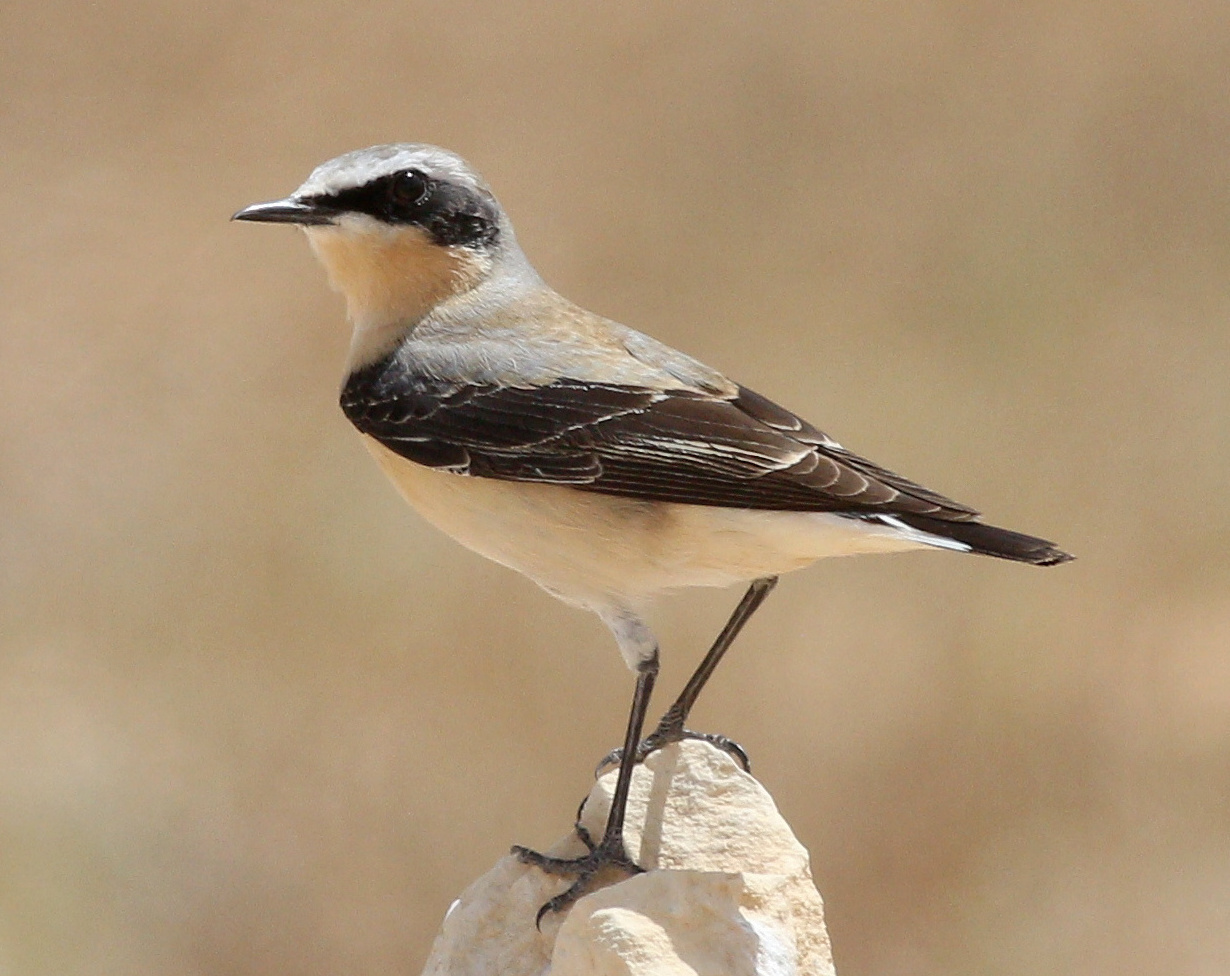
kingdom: Animalia
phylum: Chordata
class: Aves
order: Passeriformes
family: Muscicapidae
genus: Oenanthe
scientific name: Oenanthe oenanthe
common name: Northern wheatear
